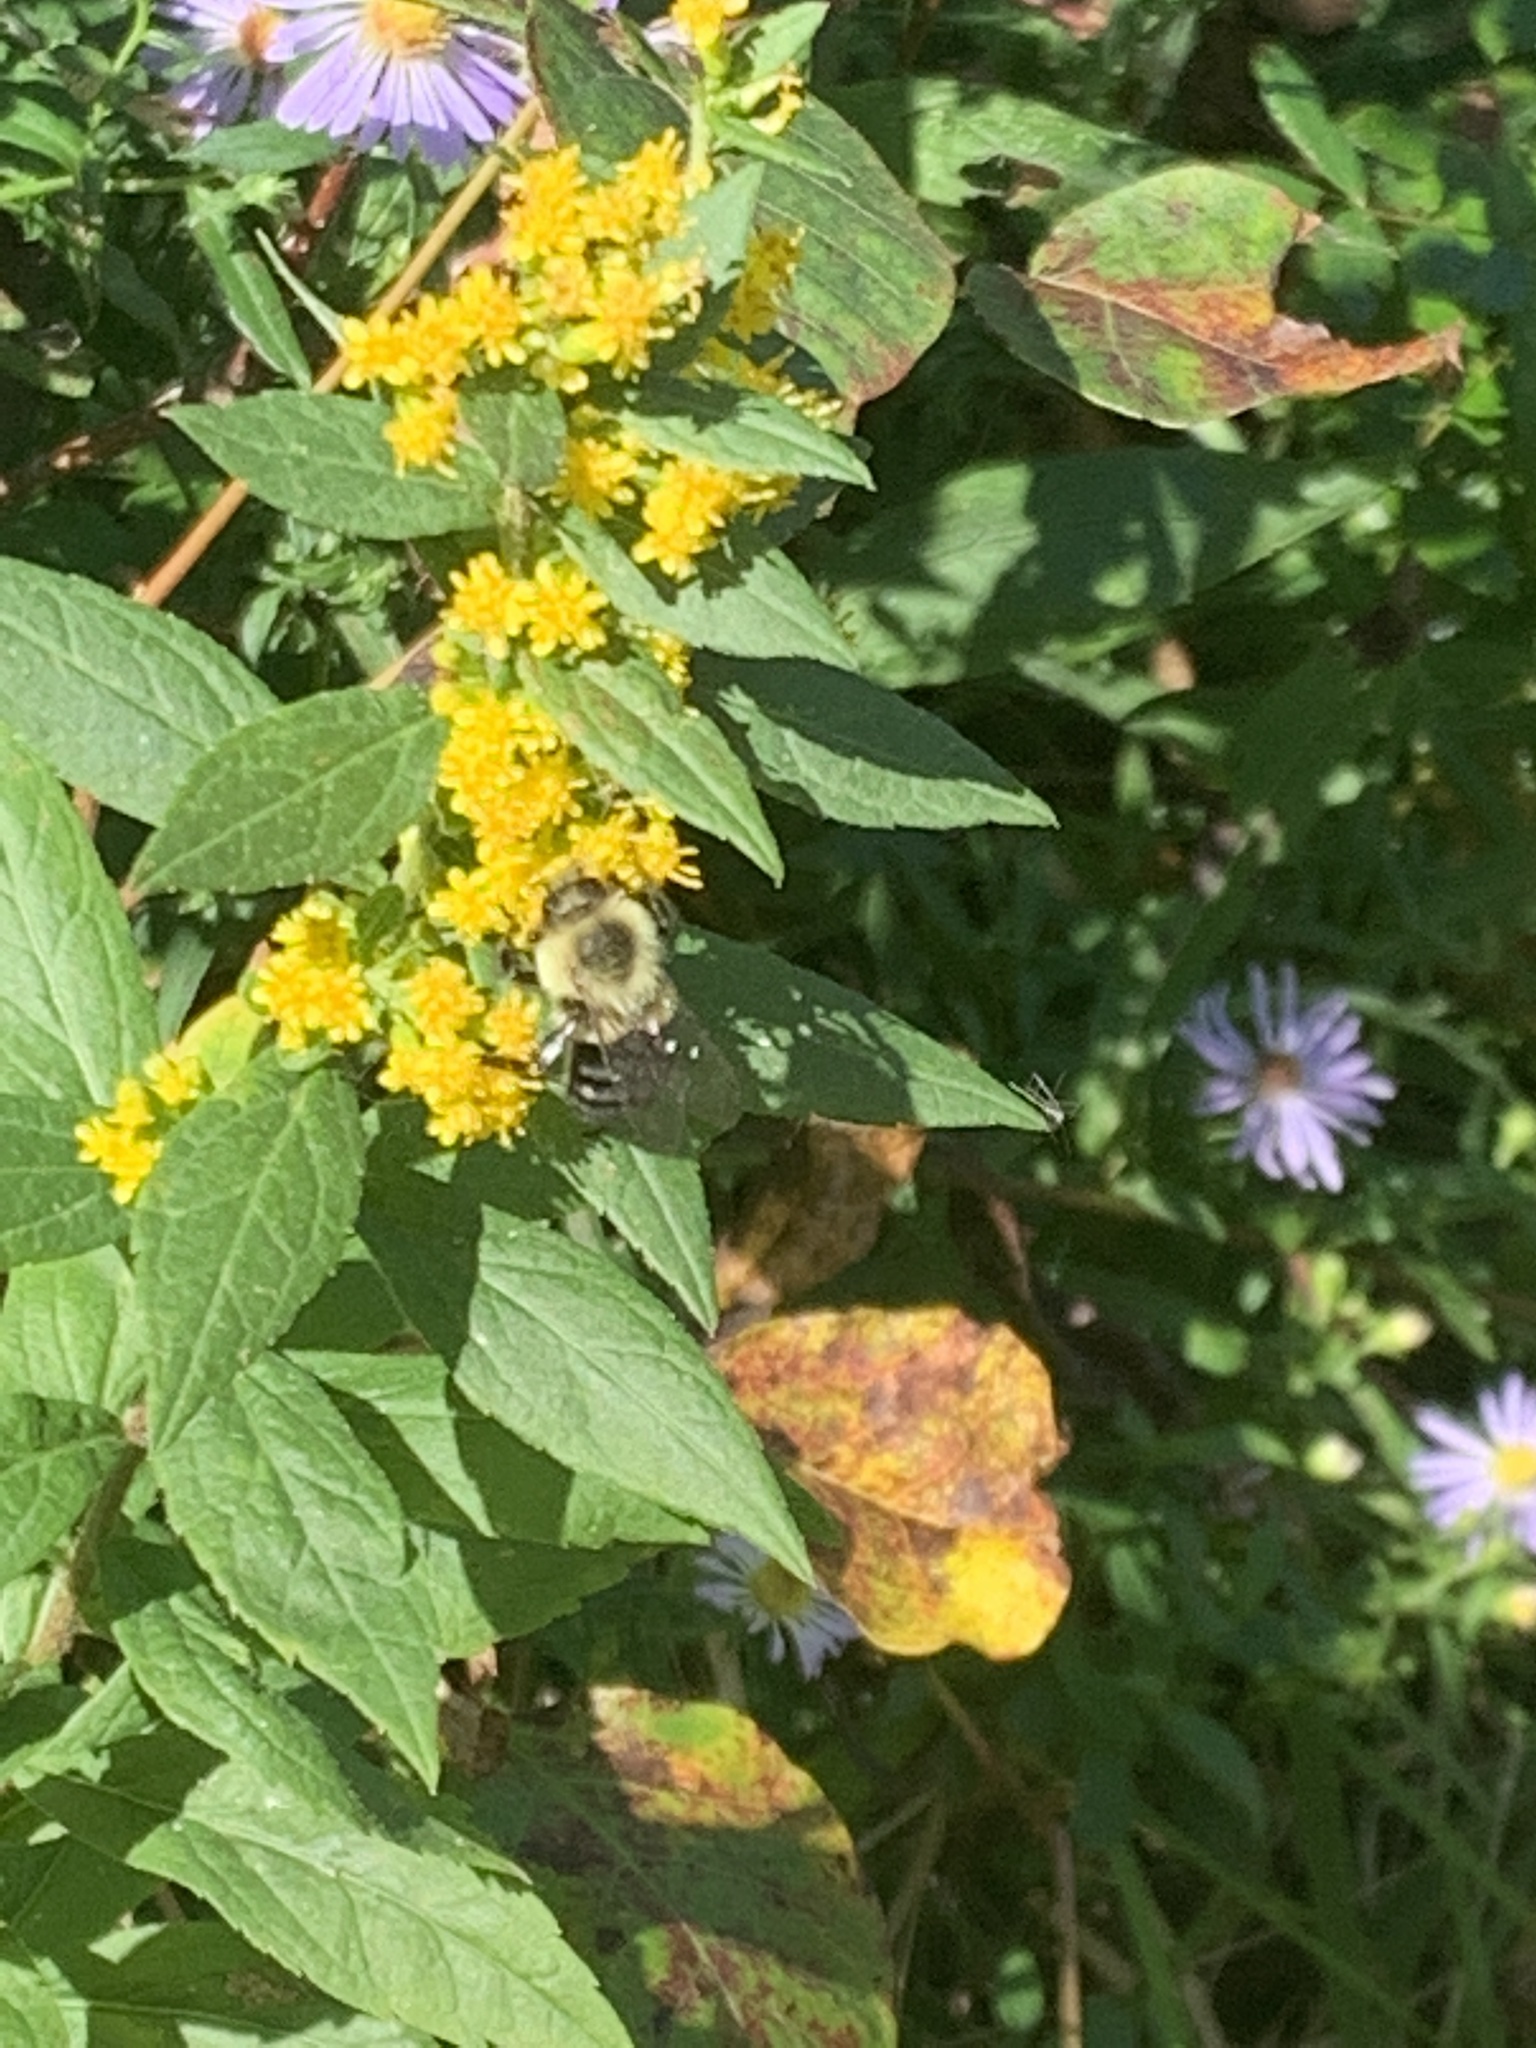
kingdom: Animalia
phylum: Arthropoda
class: Insecta
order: Hymenoptera
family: Apidae
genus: Bombus
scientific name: Bombus impatiens
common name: Common eastern bumble bee
